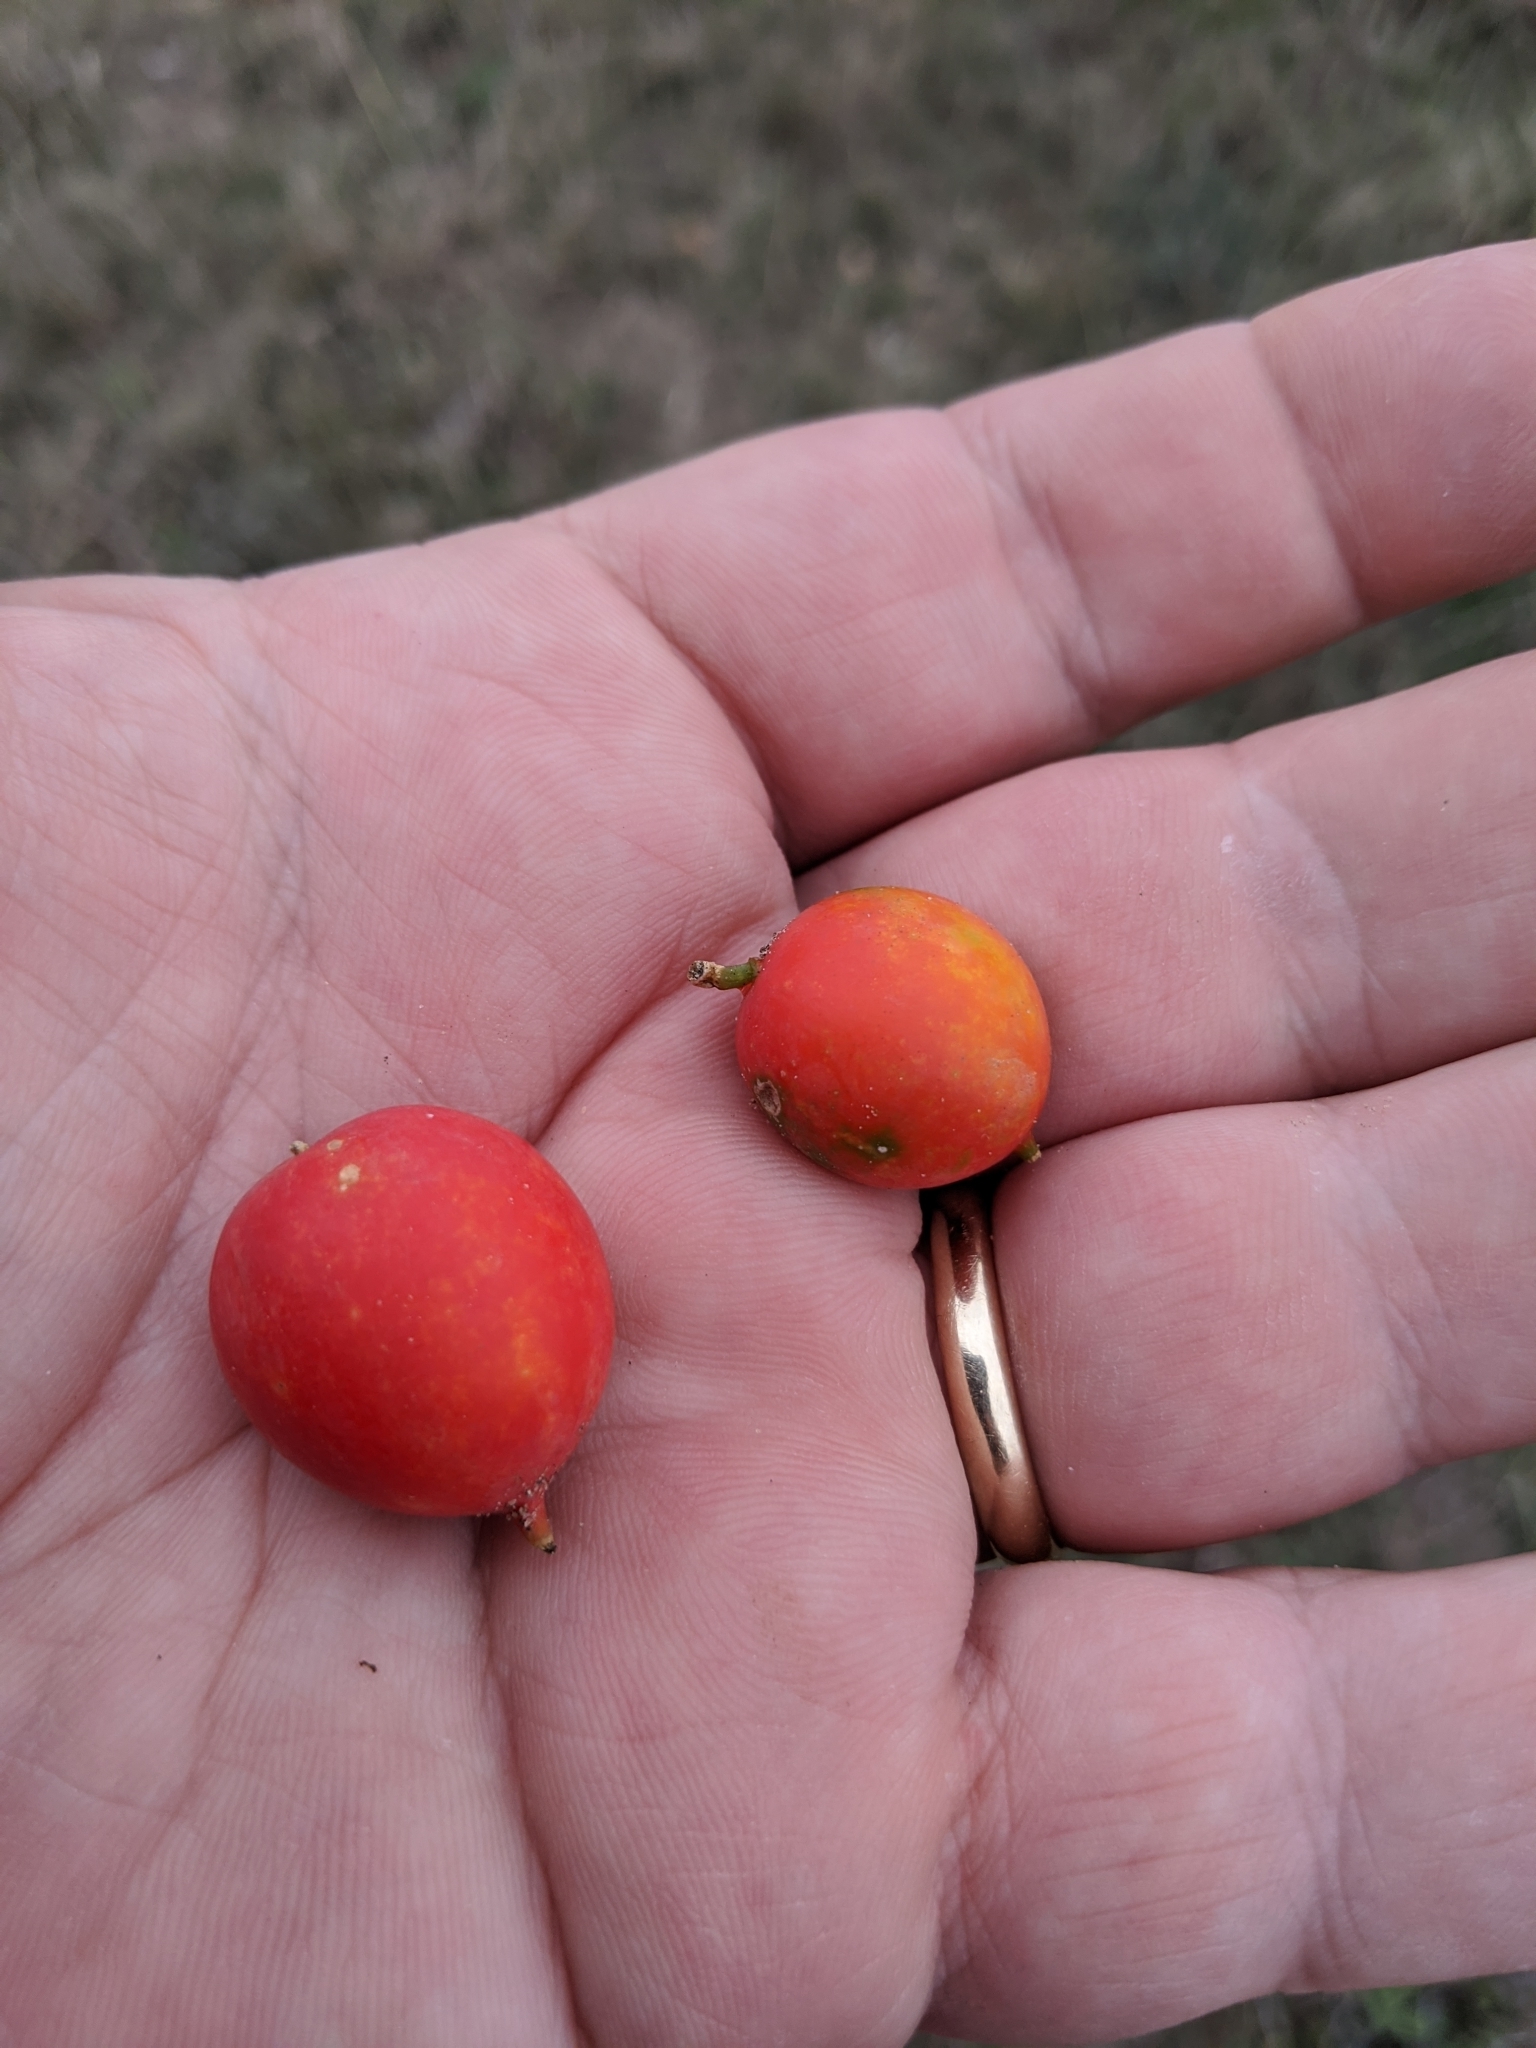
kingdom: Plantae
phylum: Tracheophyta
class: Magnoliopsida
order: Cucurbitales
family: Cucurbitaceae
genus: Ibervillea
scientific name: Ibervillea lindheimeri
